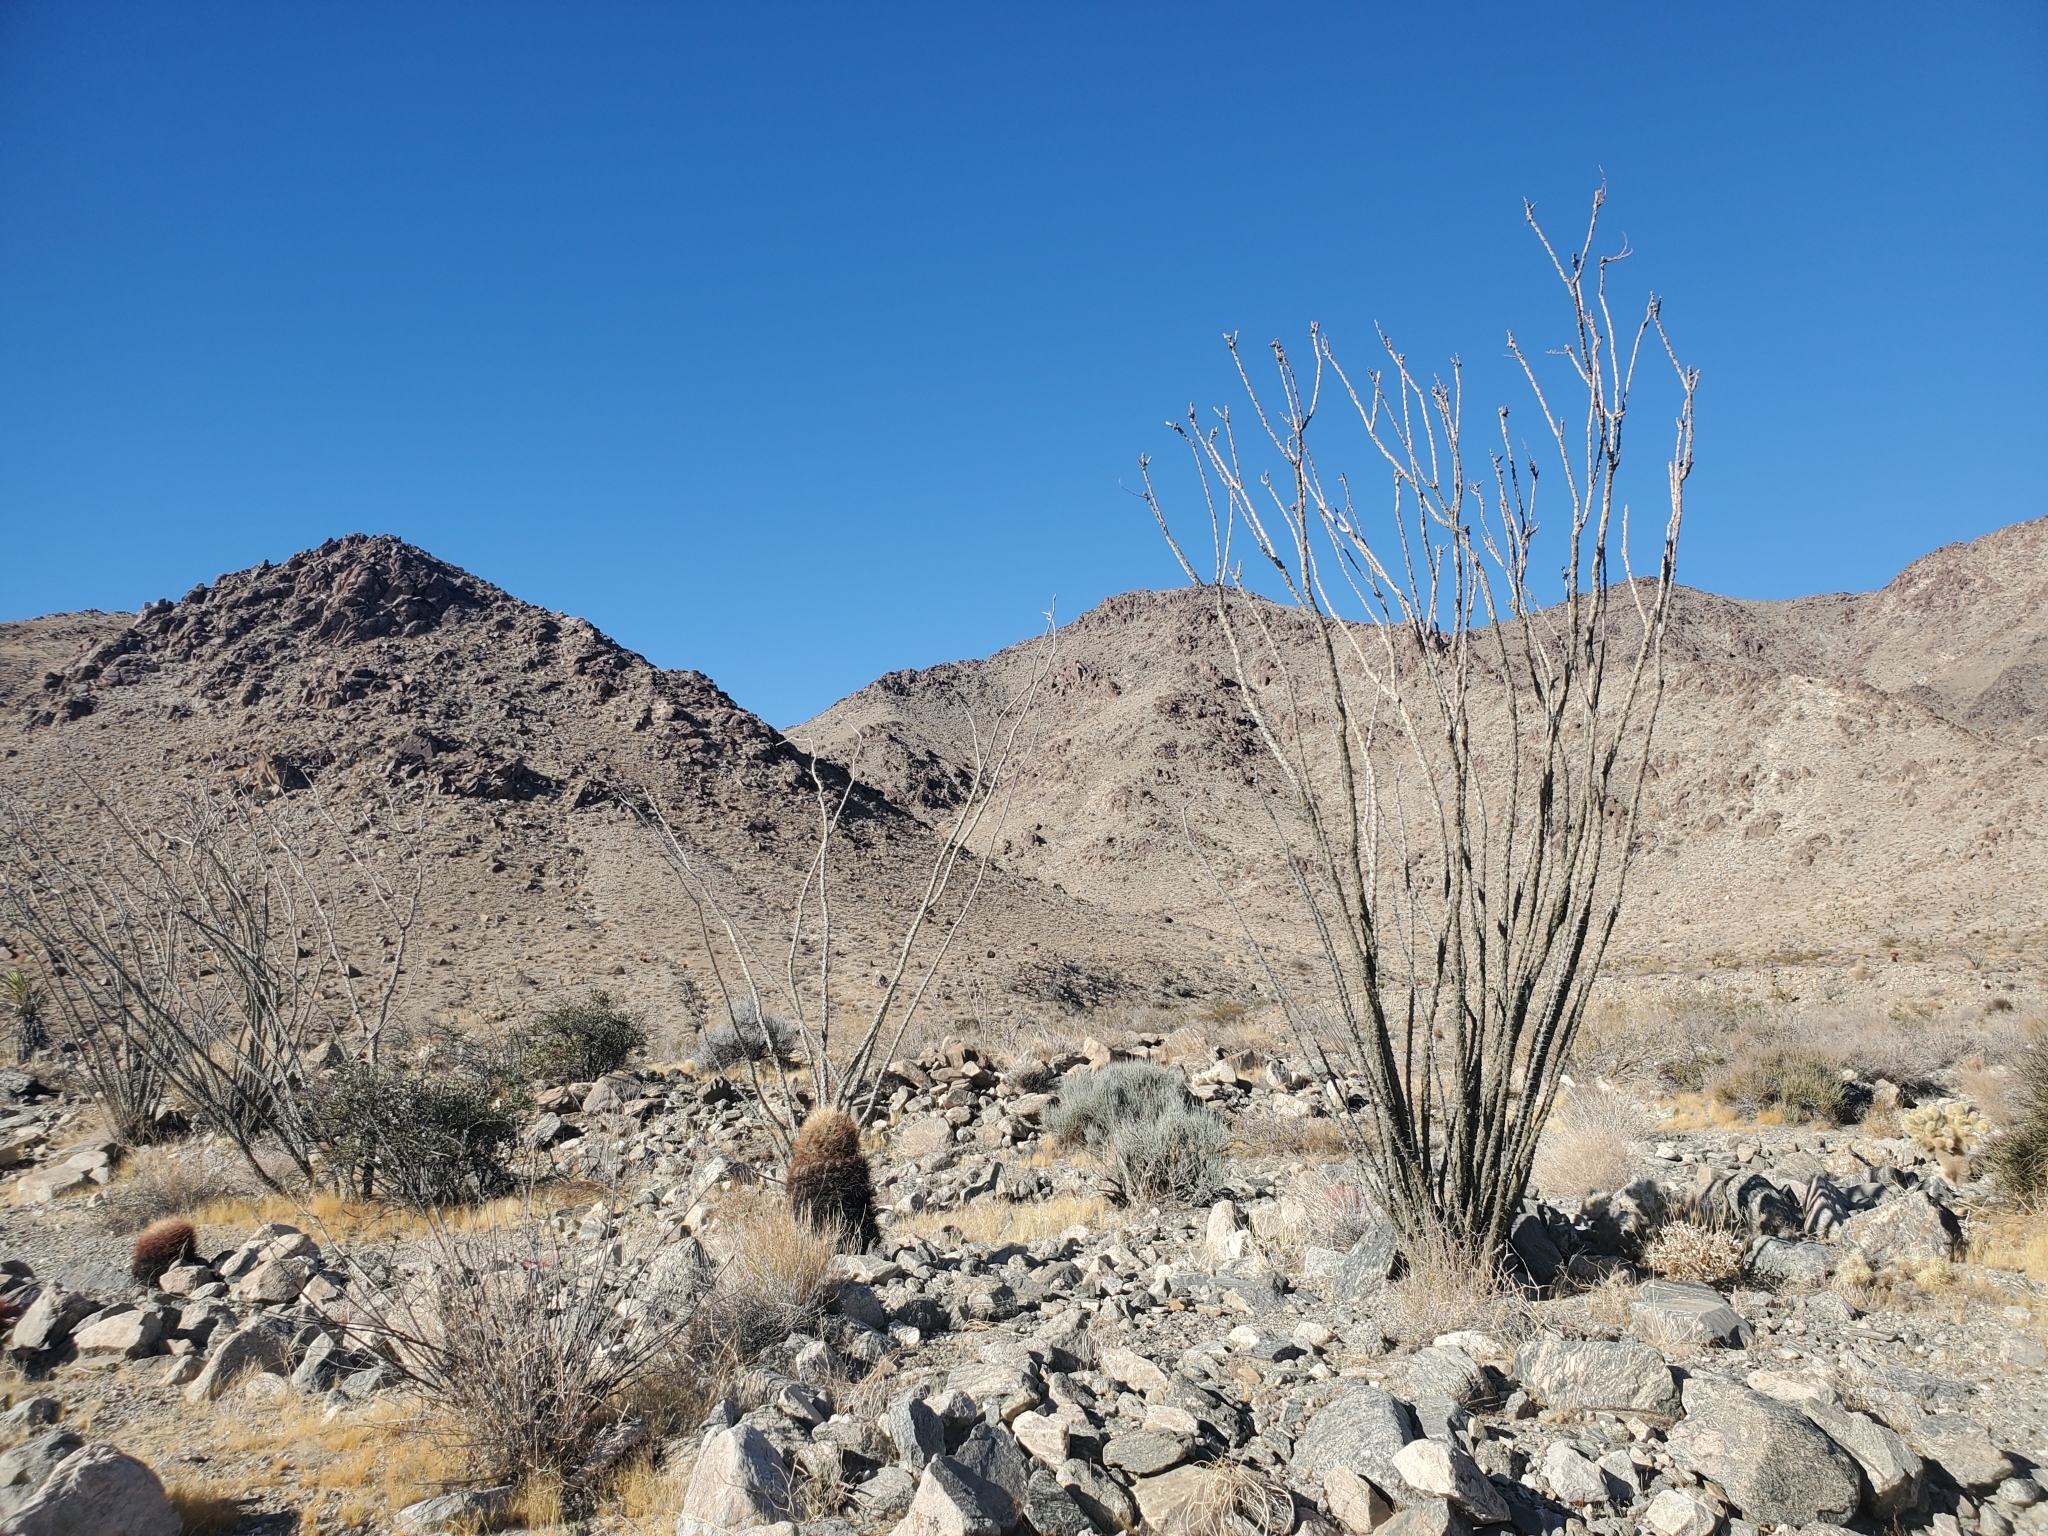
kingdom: Plantae
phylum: Tracheophyta
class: Magnoliopsida
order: Ericales
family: Fouquieriaceae
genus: Fouquieria
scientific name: Fouquieria splendens
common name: Vine-cactus
